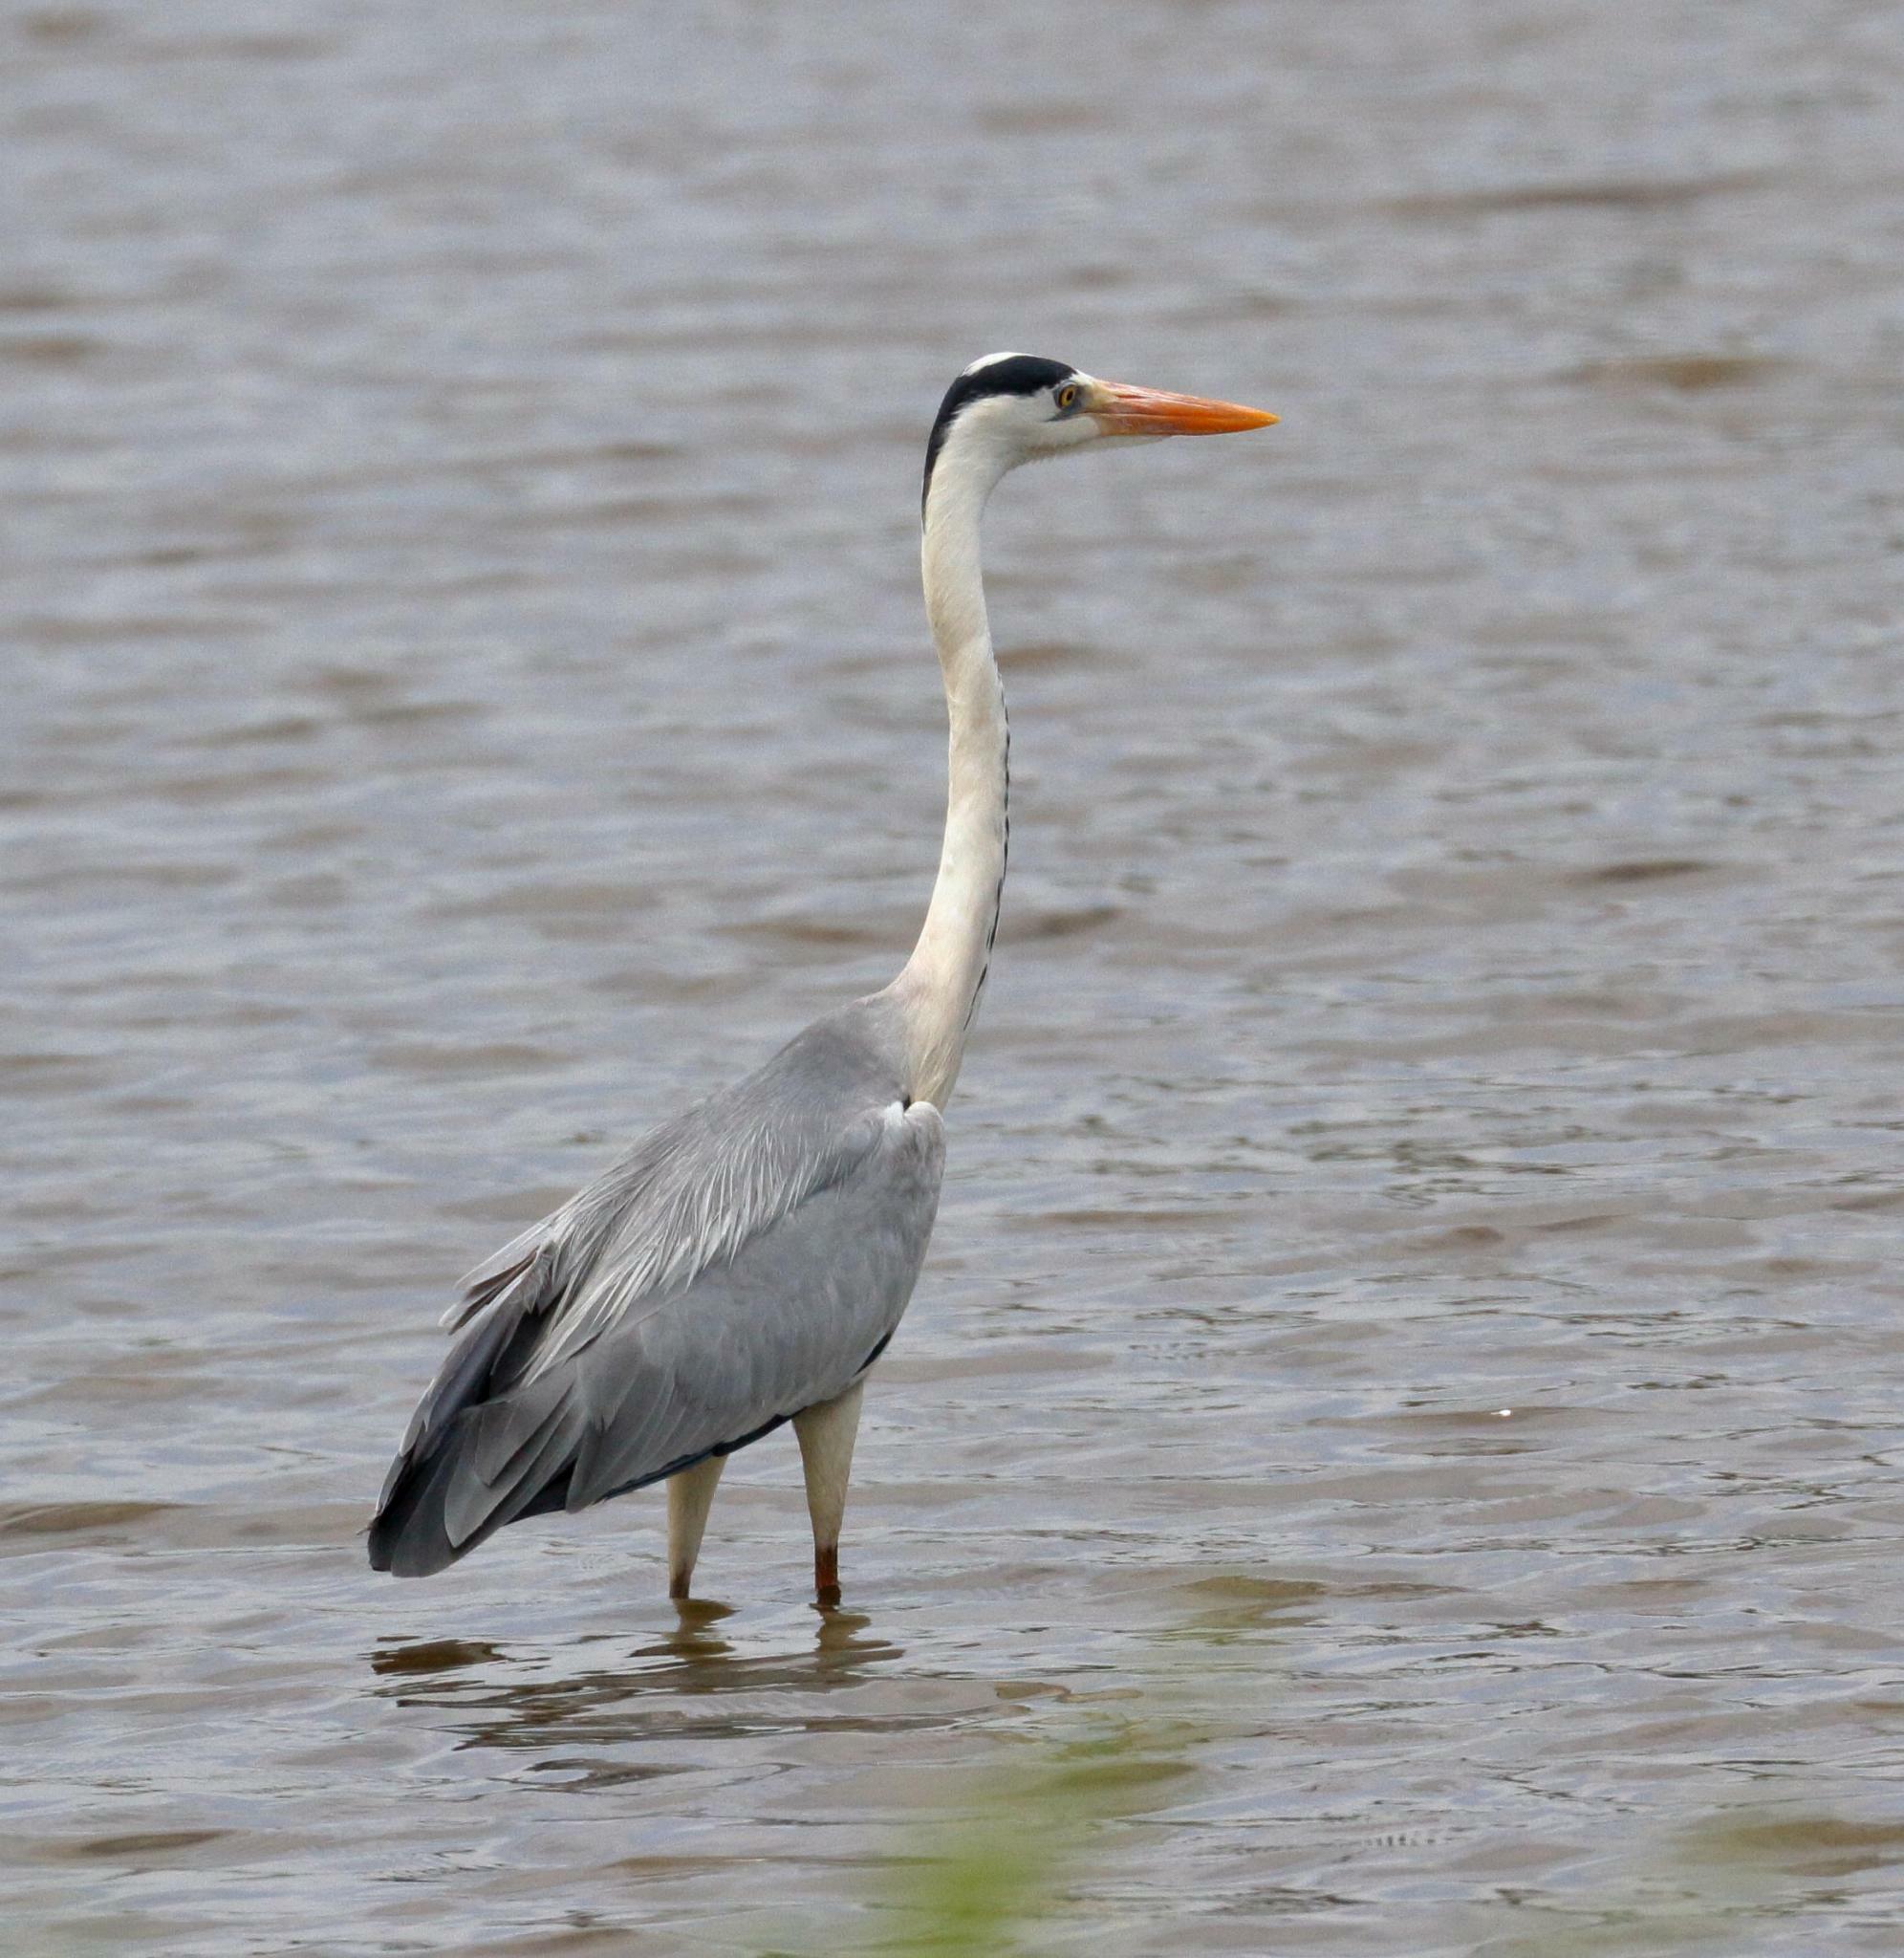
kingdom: Animalia
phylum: Chordata
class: Aves
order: Pelecaniformes
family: Ardeidae
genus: Ardea
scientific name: Ardea cinerea
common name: Grey heron
